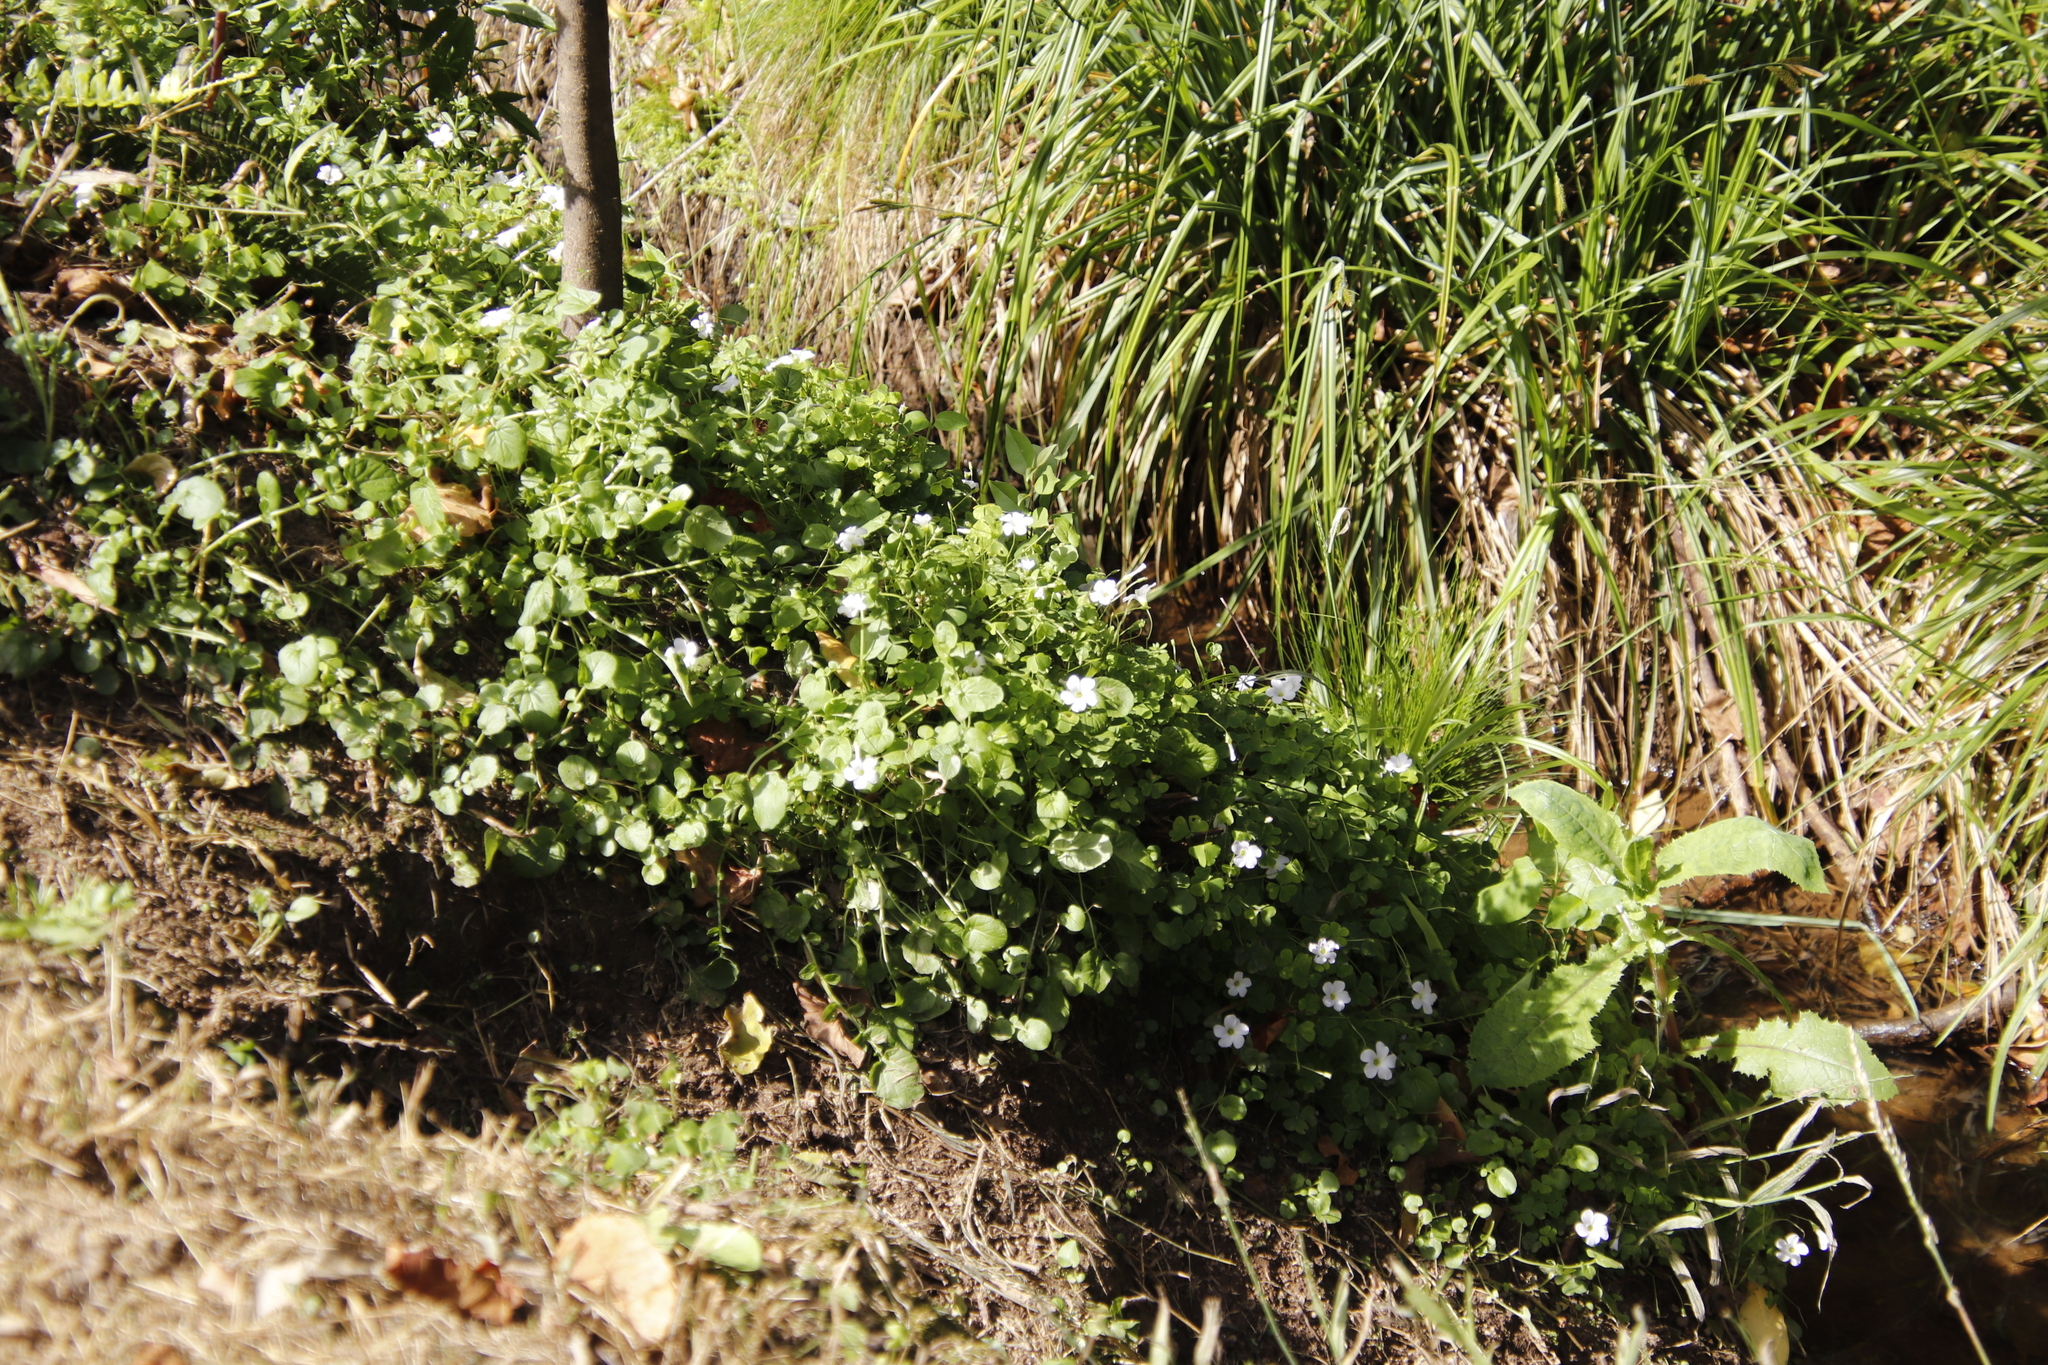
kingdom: Plantae
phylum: Tracheophyta
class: Magnoliopsida
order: Oxalidales
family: Oxalidaceae
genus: Oxalis
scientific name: Oxalis incarnata
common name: Pale pink-sorrel
